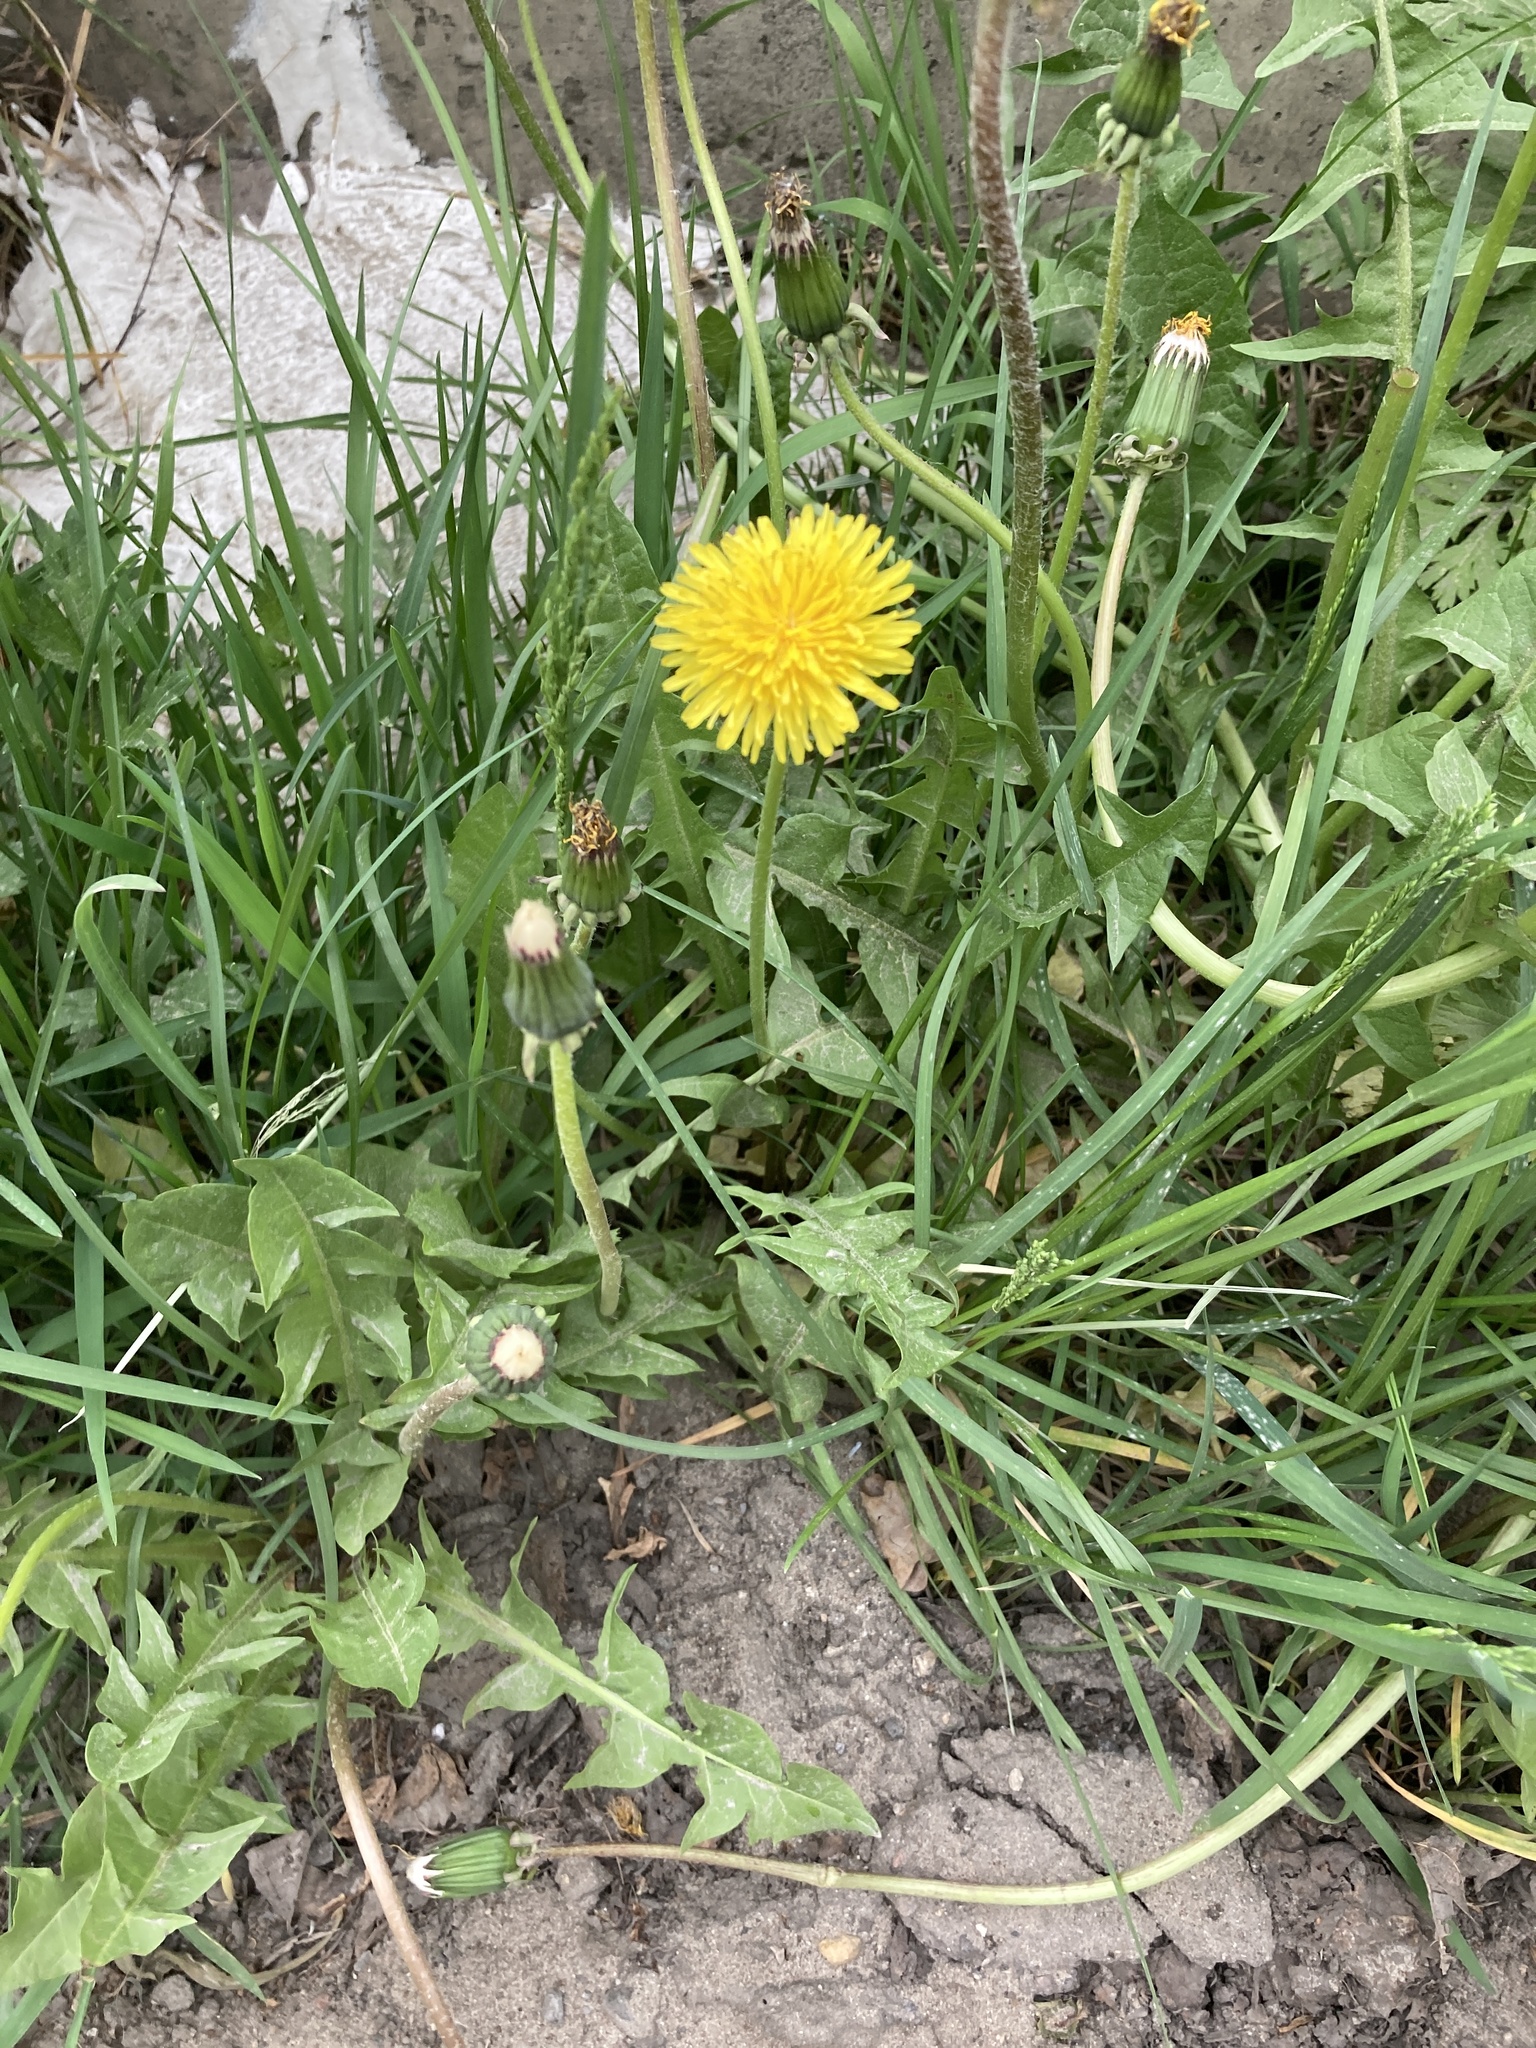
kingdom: Plantae
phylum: Tracheophyta
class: Magnoliopsida
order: Asterales
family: Asteraceae
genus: Taraxacum
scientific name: Taraxacum officinale
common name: Common dandelion
